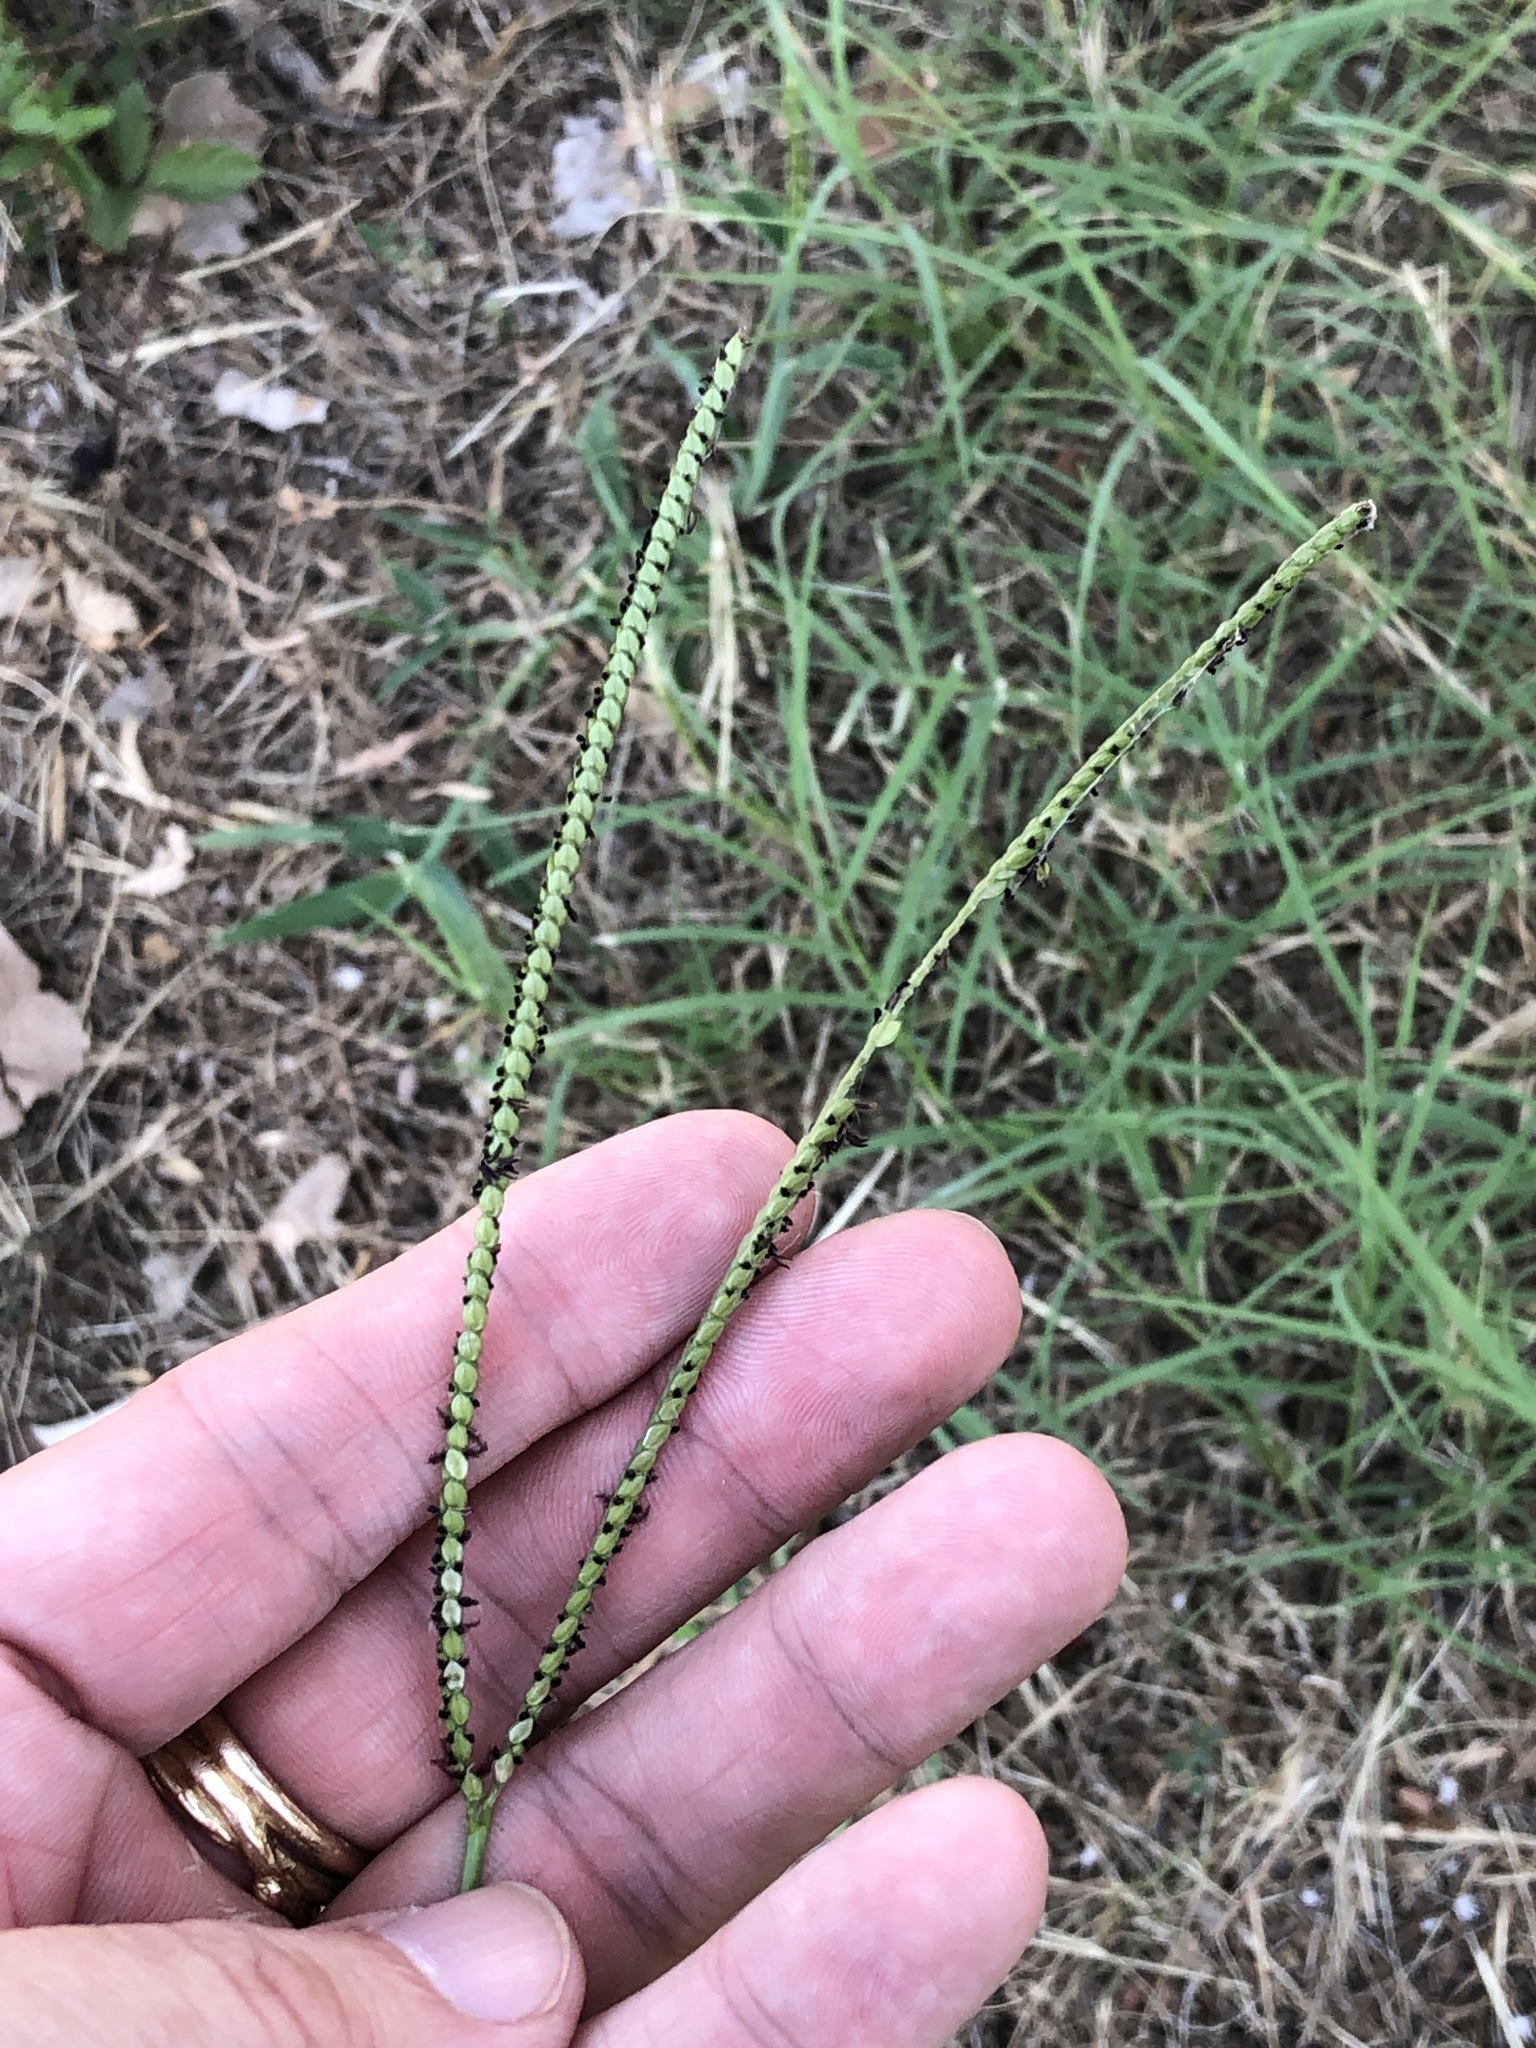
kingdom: Plantae
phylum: Tracheophyta
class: Liliopsida
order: Poales
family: Poaceae
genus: Paspalum
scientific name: Paspalum notatum
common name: Bahiagrass
